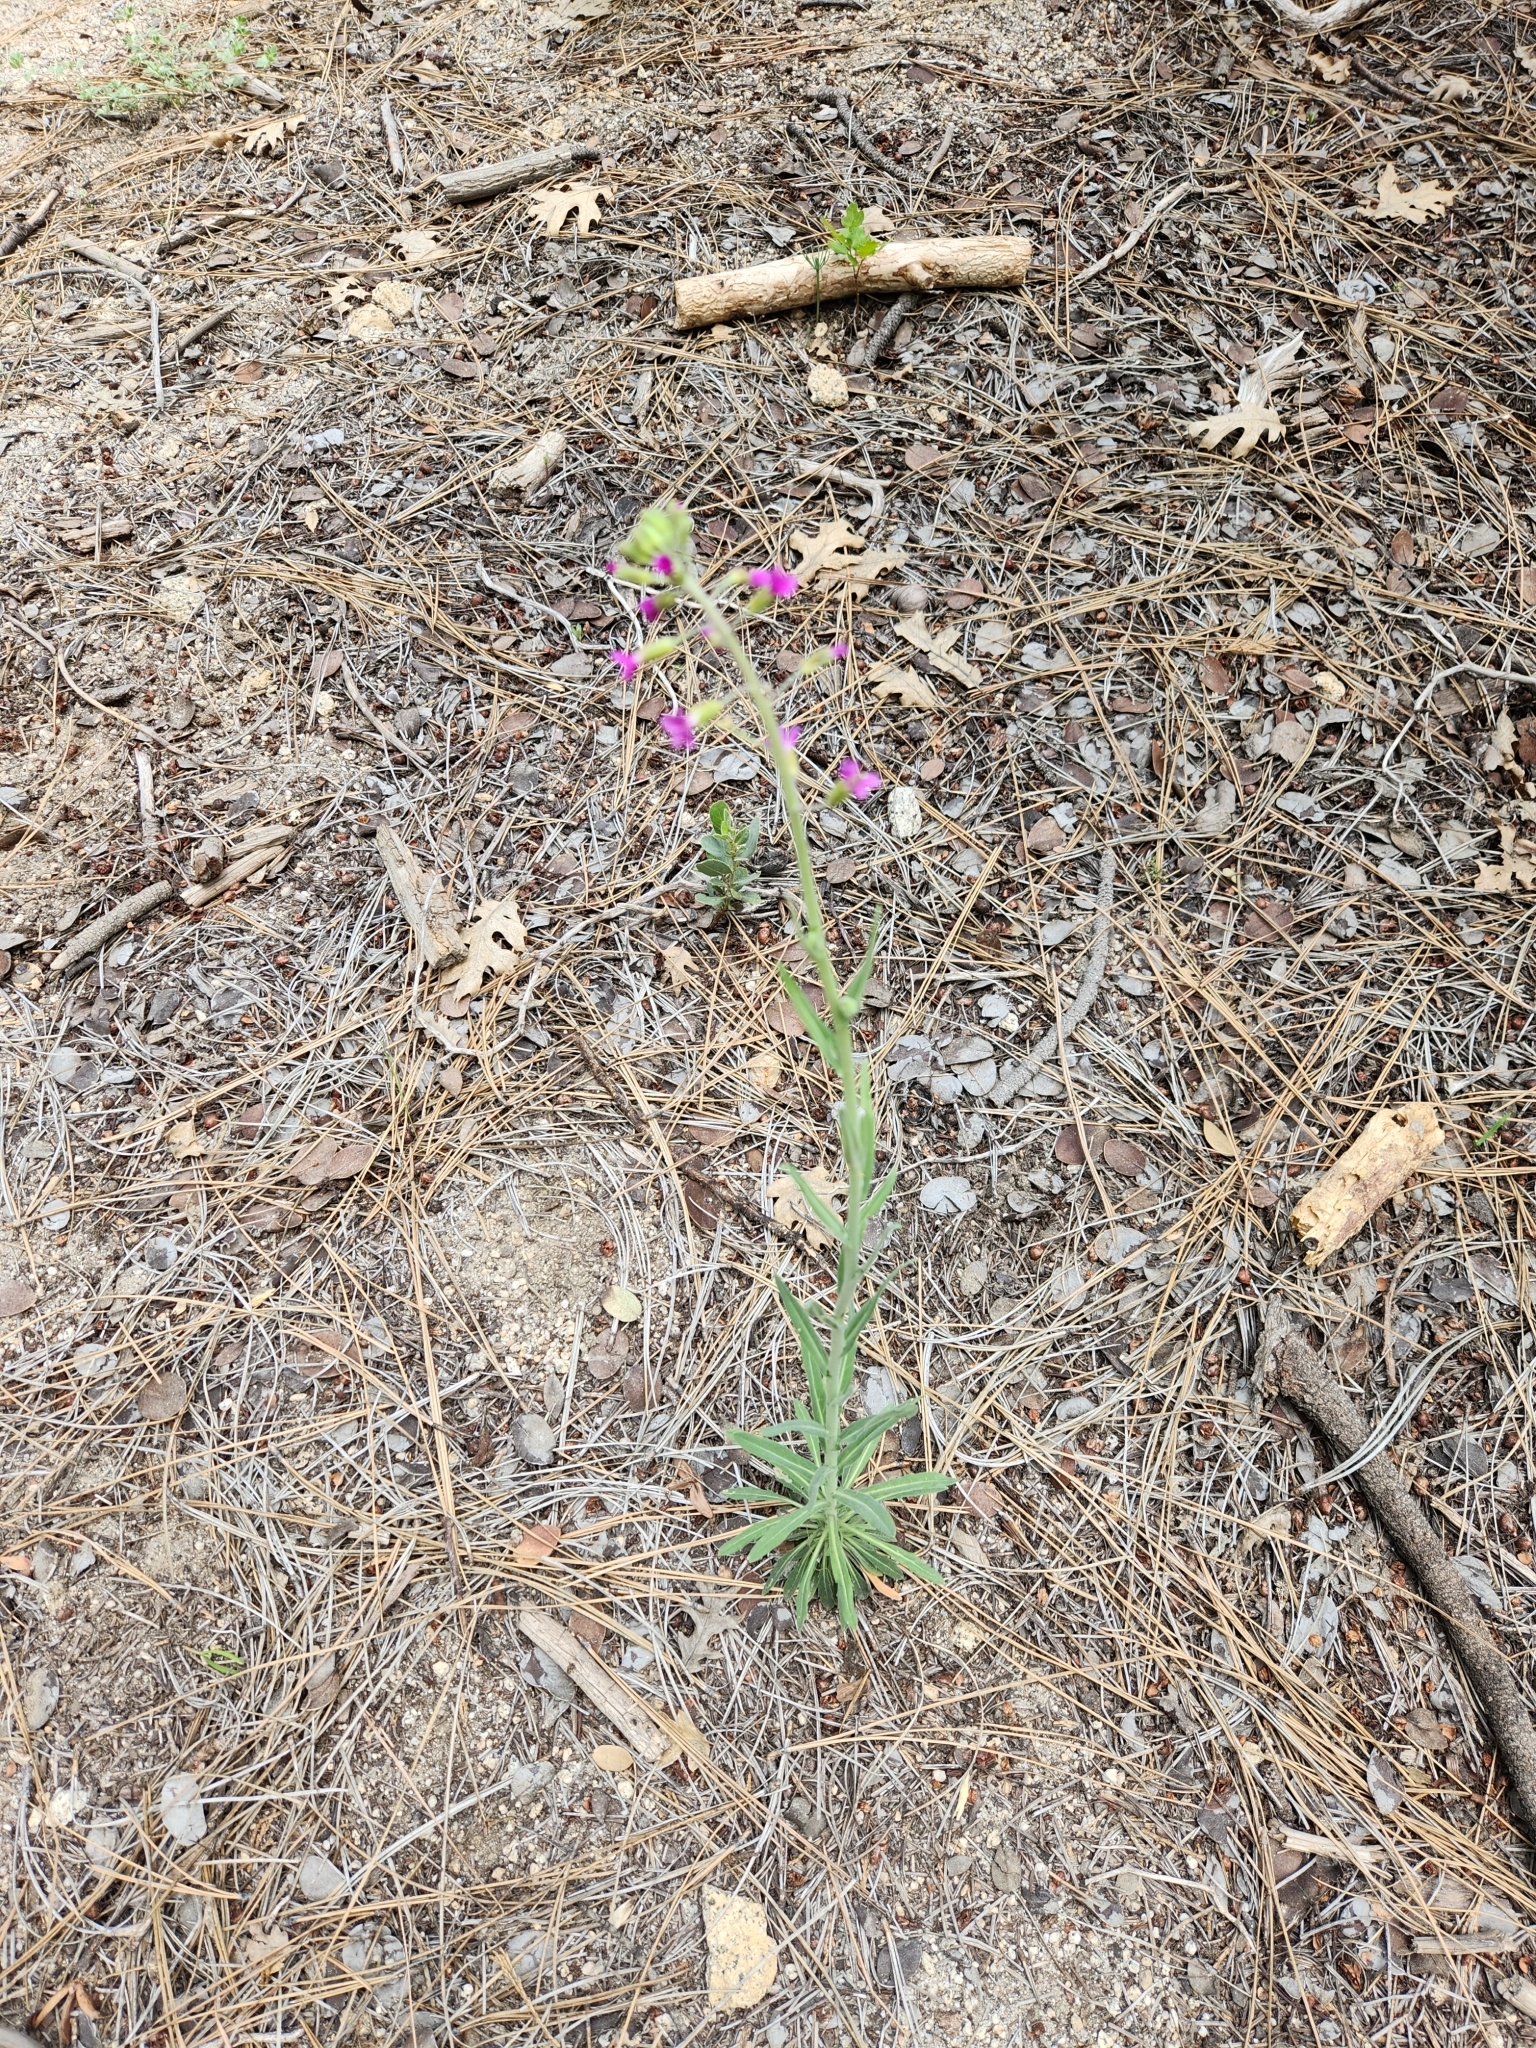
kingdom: Plantae
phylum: Tracheophyta
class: Magnoliopsida
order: Brassicales
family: Brassicaceae
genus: Boechera
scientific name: Boechera californica
